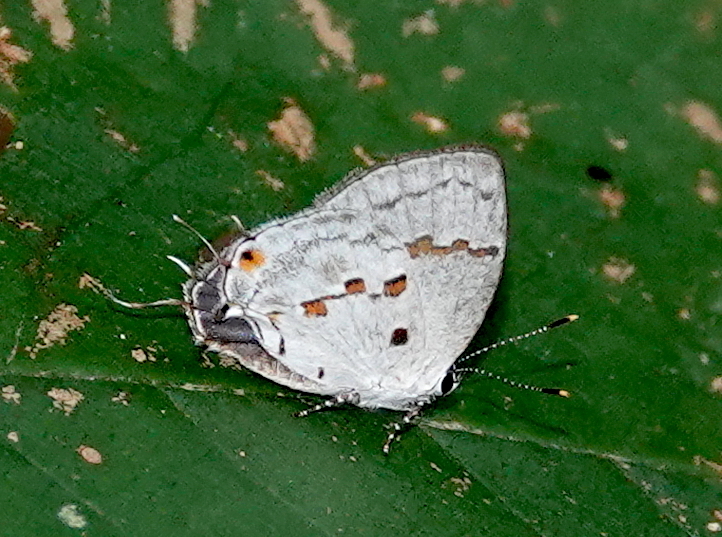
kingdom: Animalia
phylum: Arthropoda
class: Insecta
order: Lepidoptera
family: Lycaenidae
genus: Thecla
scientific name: Thecla celmus
